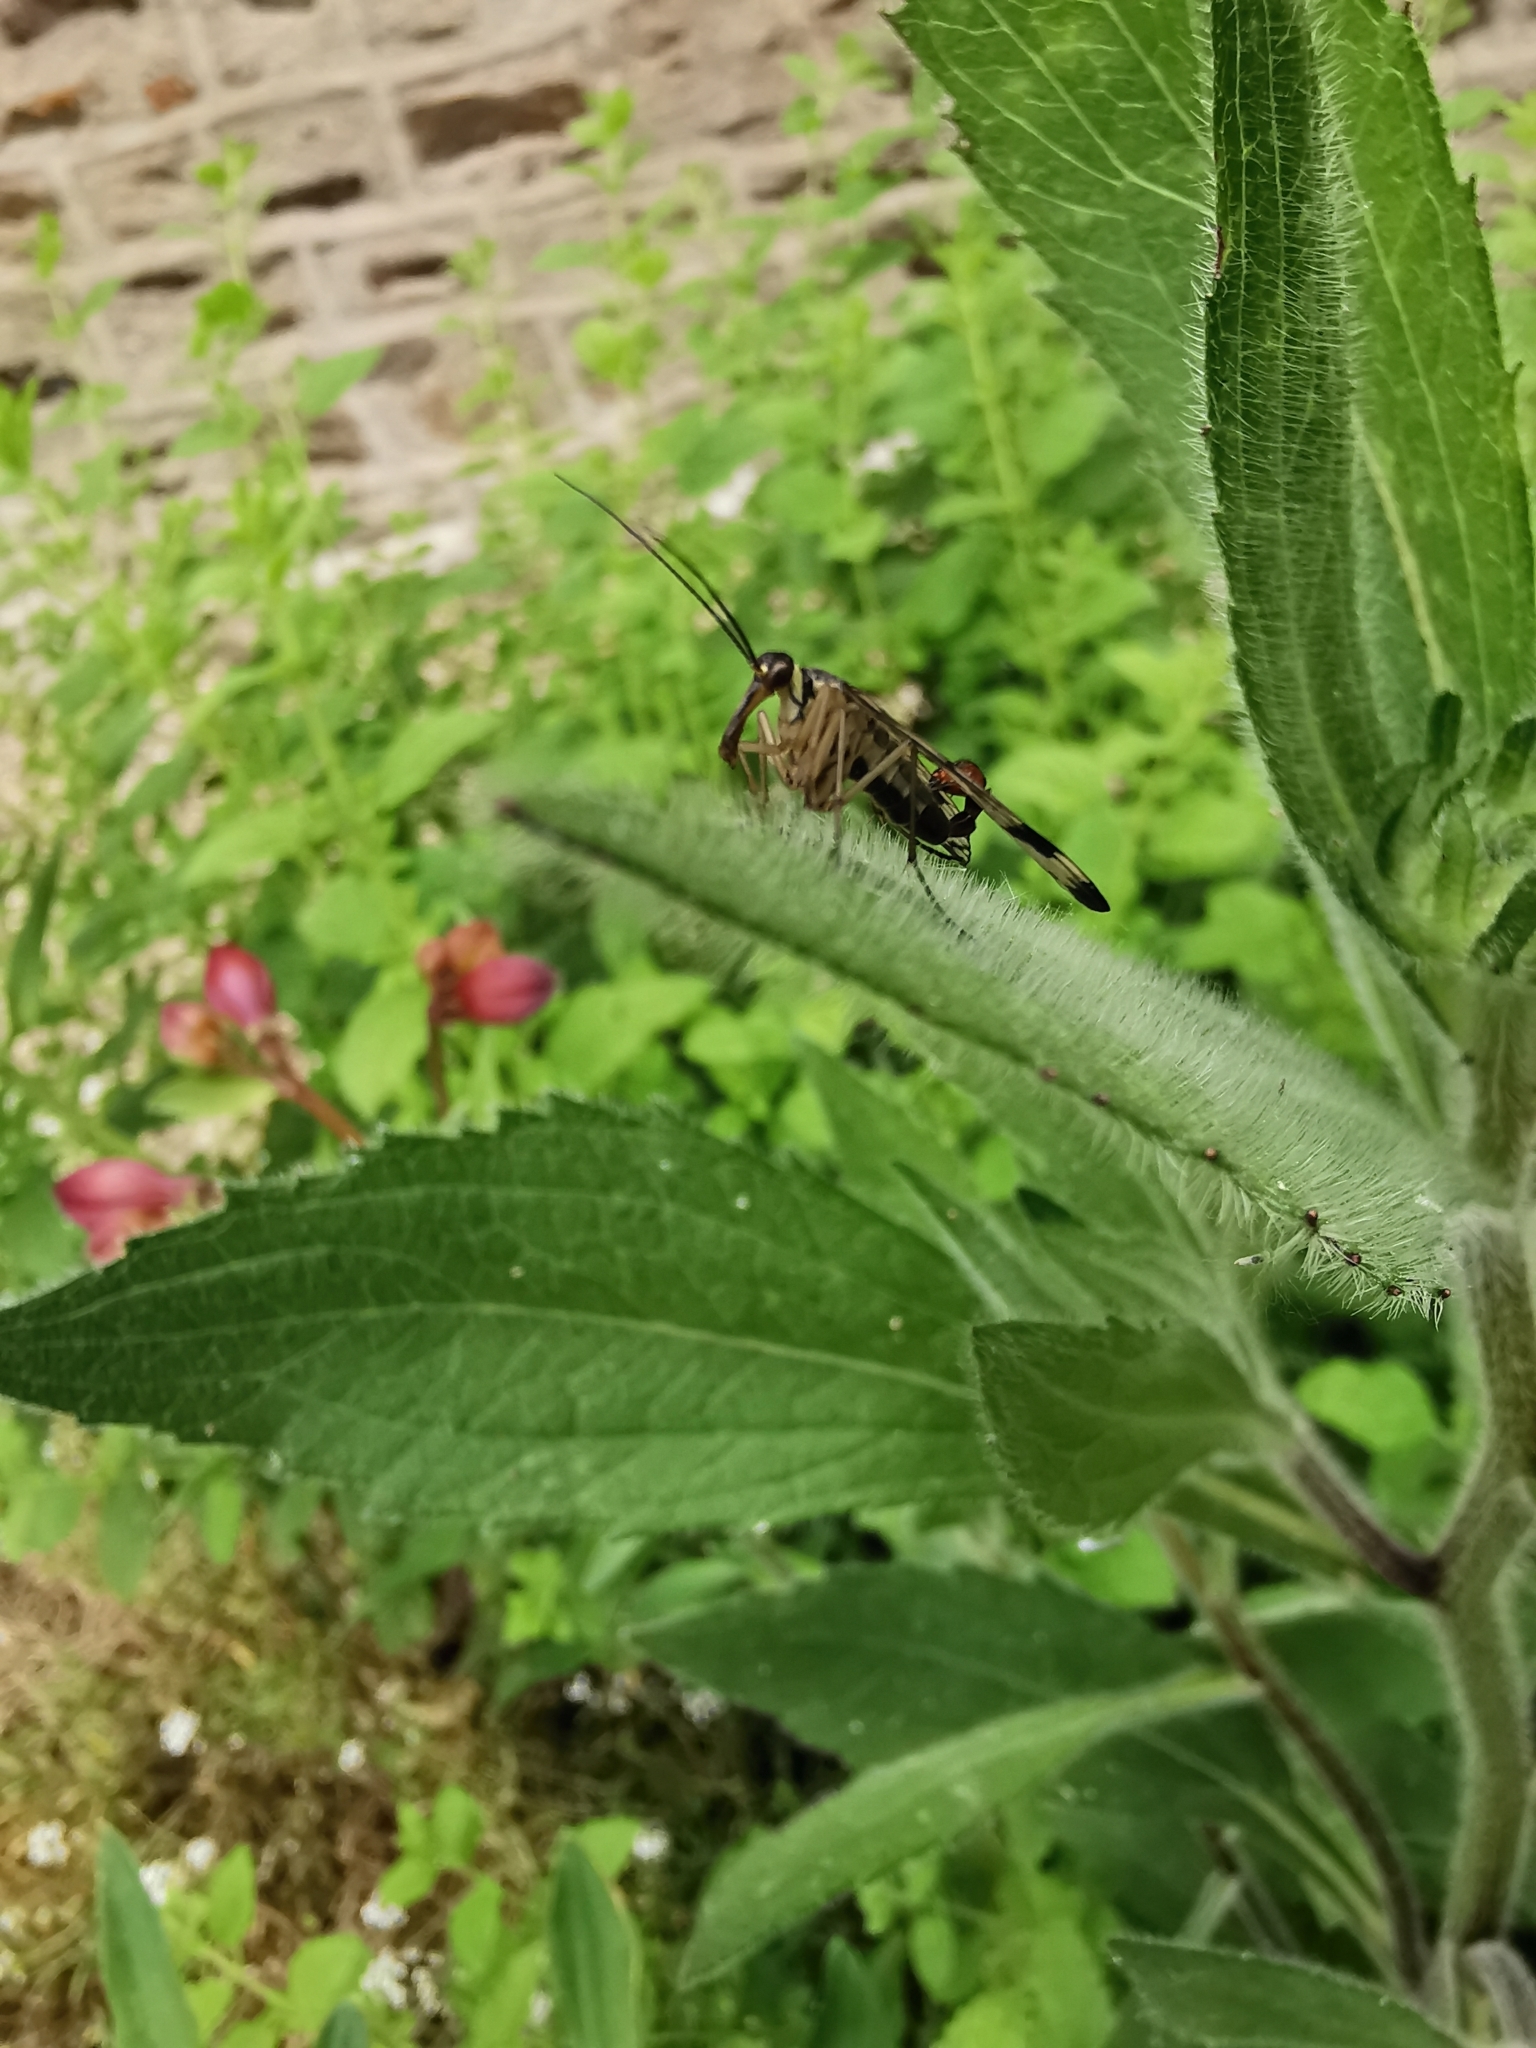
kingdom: Animalia
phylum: Arthropoda
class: Insecta
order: Mecoptera
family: Panorpidae
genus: Panorpa
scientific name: Panorpa communis
